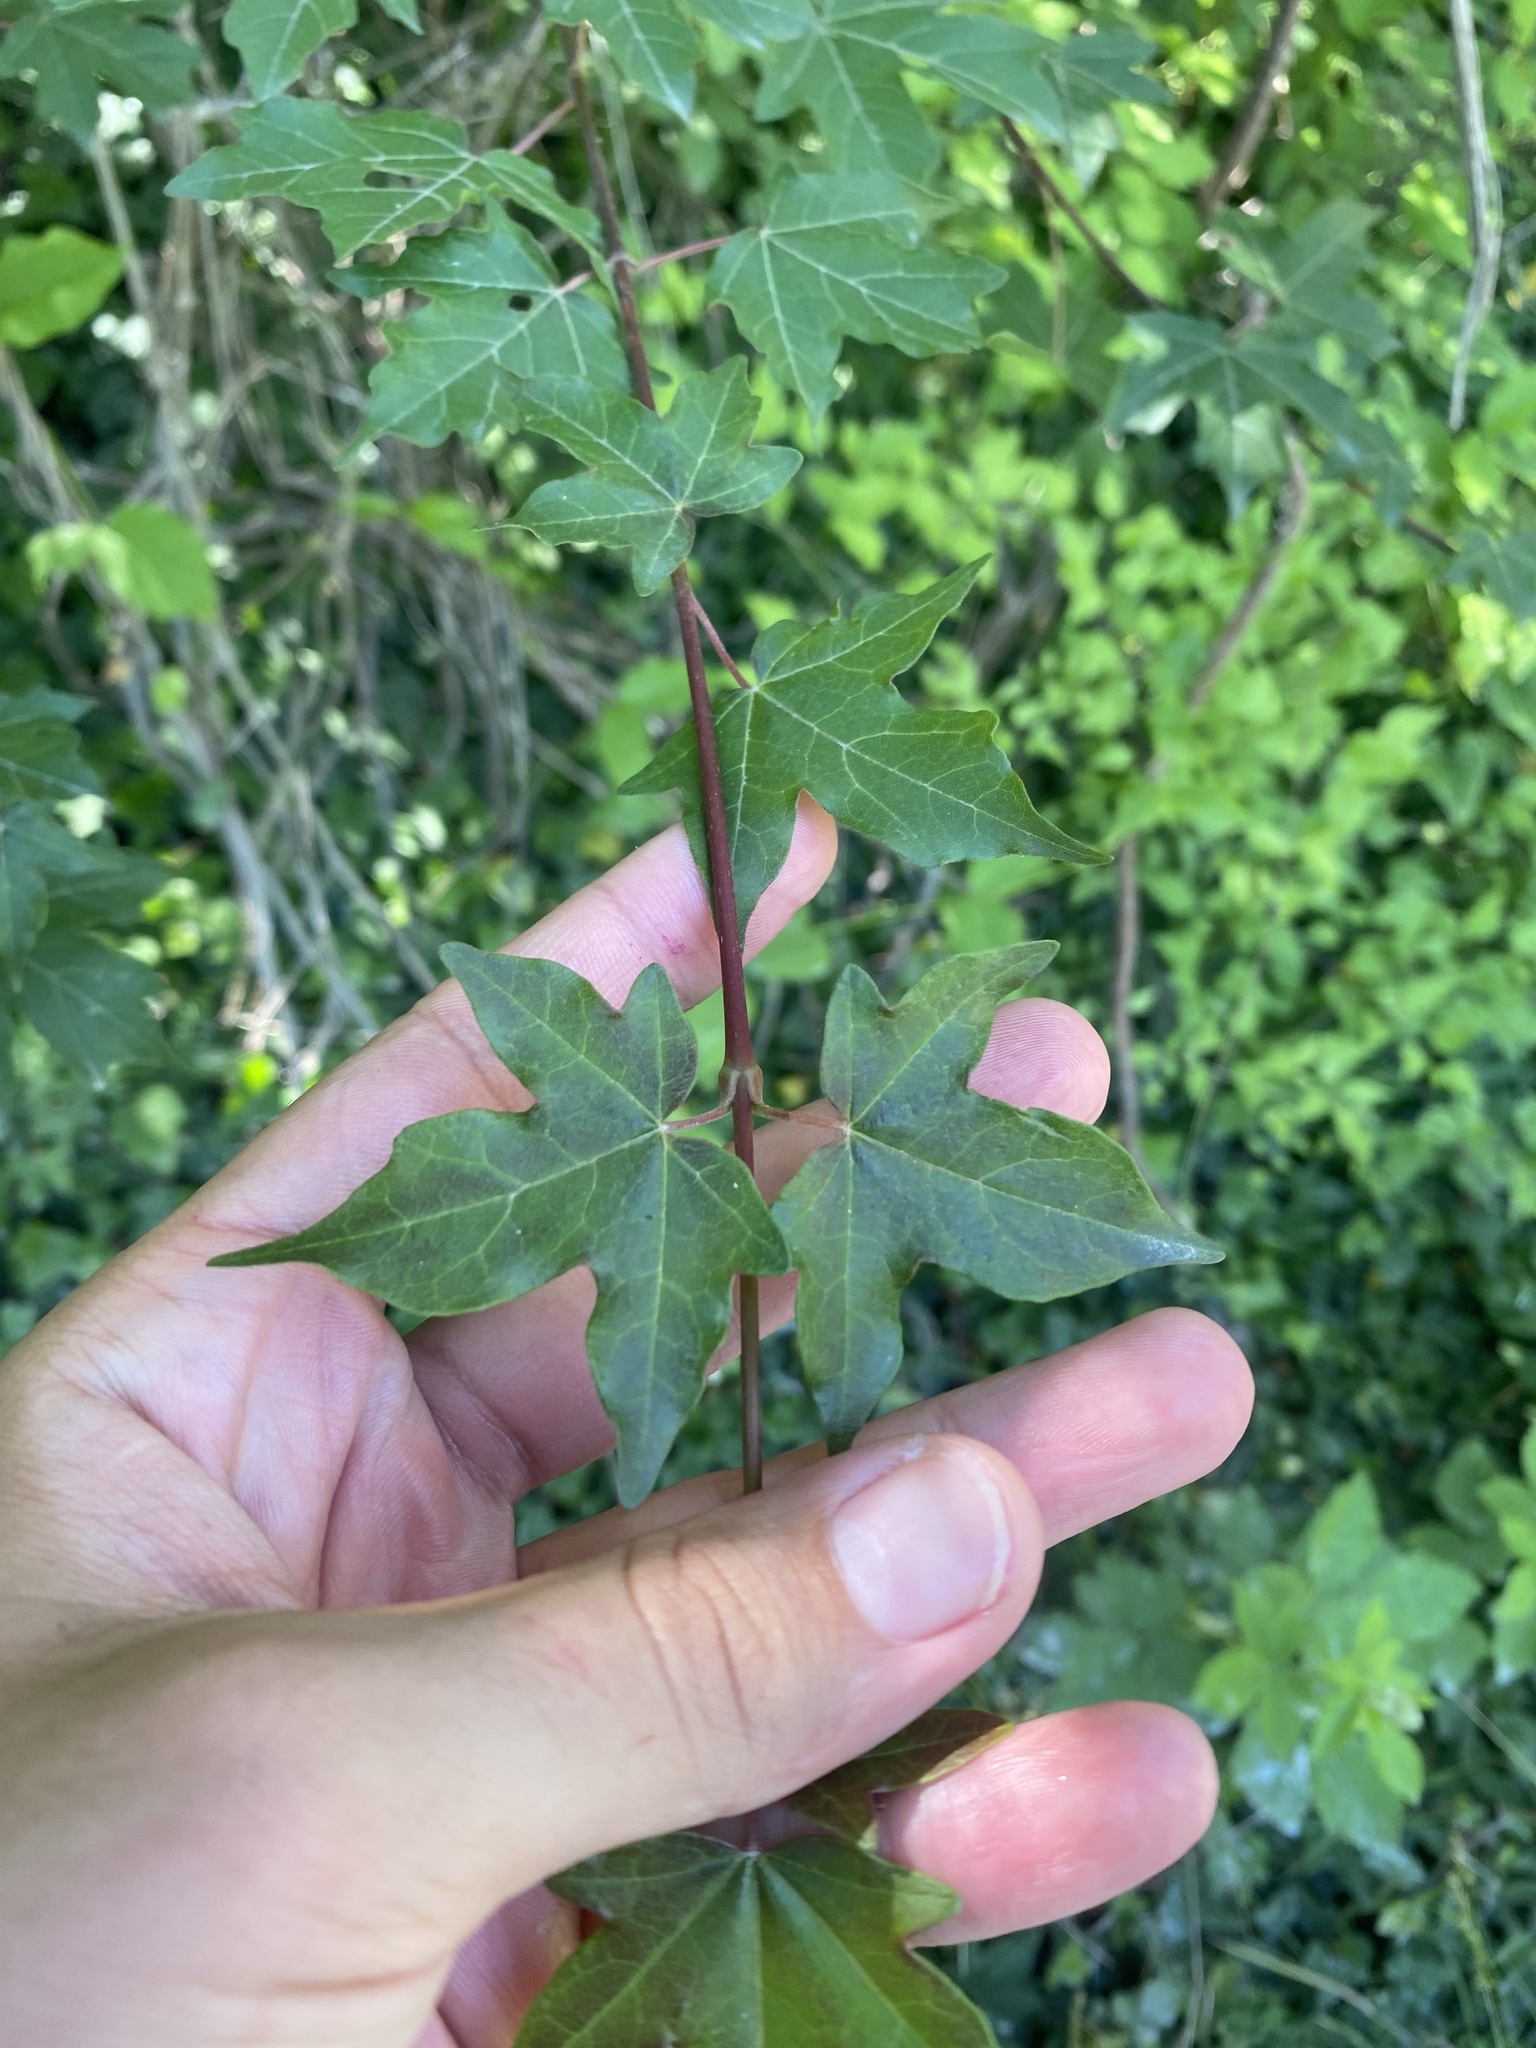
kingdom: Plantae
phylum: Tracheophyta
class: Magnoliopsida
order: Sapindales
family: Sapindaceae
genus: Acer
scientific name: Acer campestre
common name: Field maple
